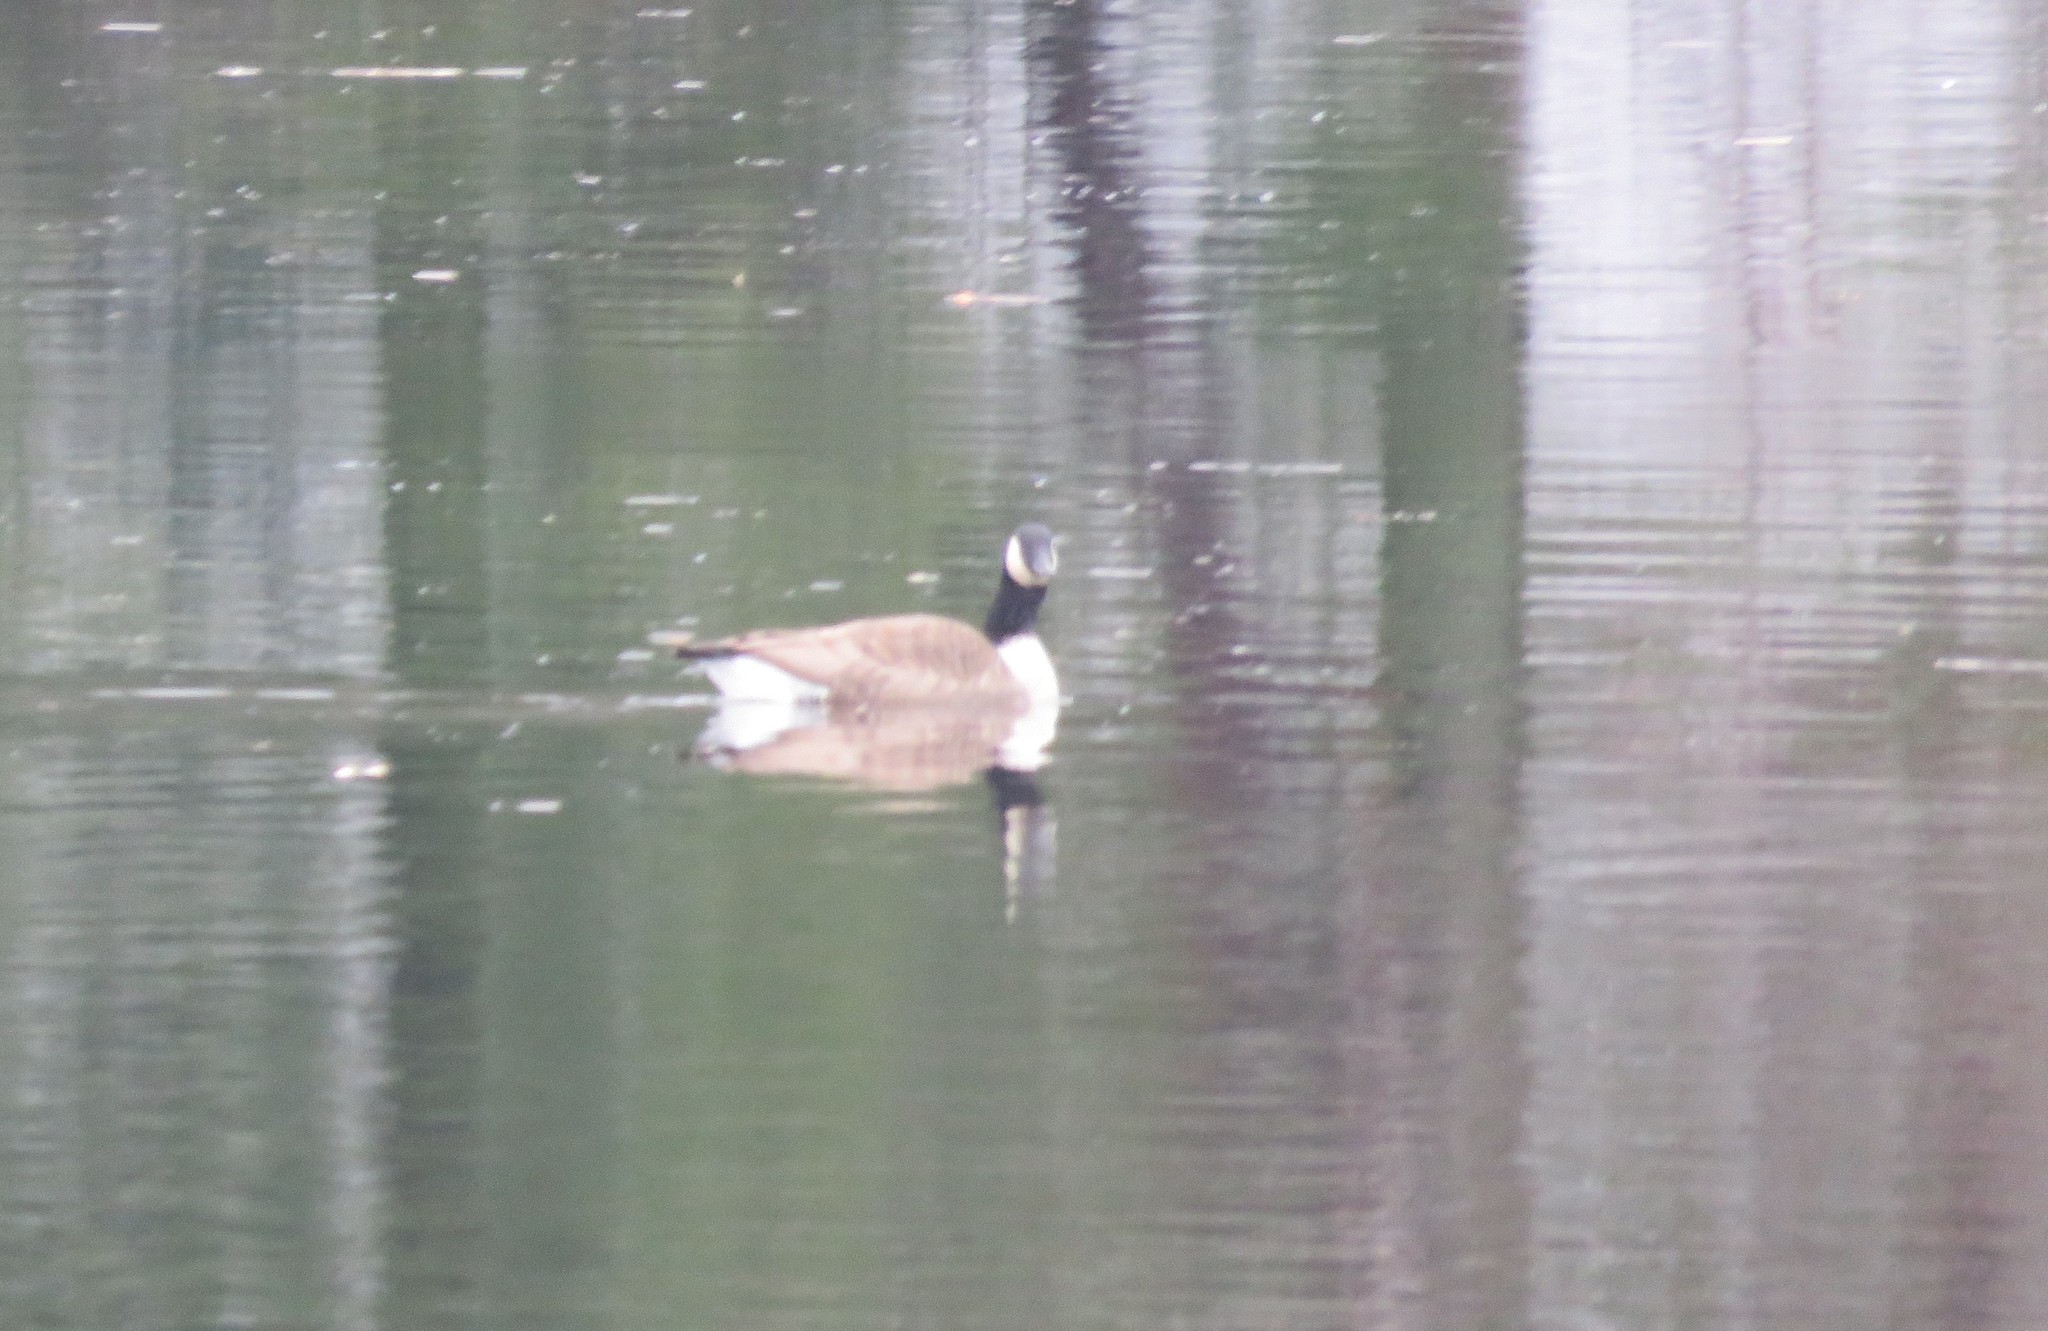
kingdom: Animalia
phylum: Chordata
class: Aves
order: Anseriformes
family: Anatidae
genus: Branta
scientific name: Branta canadensis
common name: Canada goose
